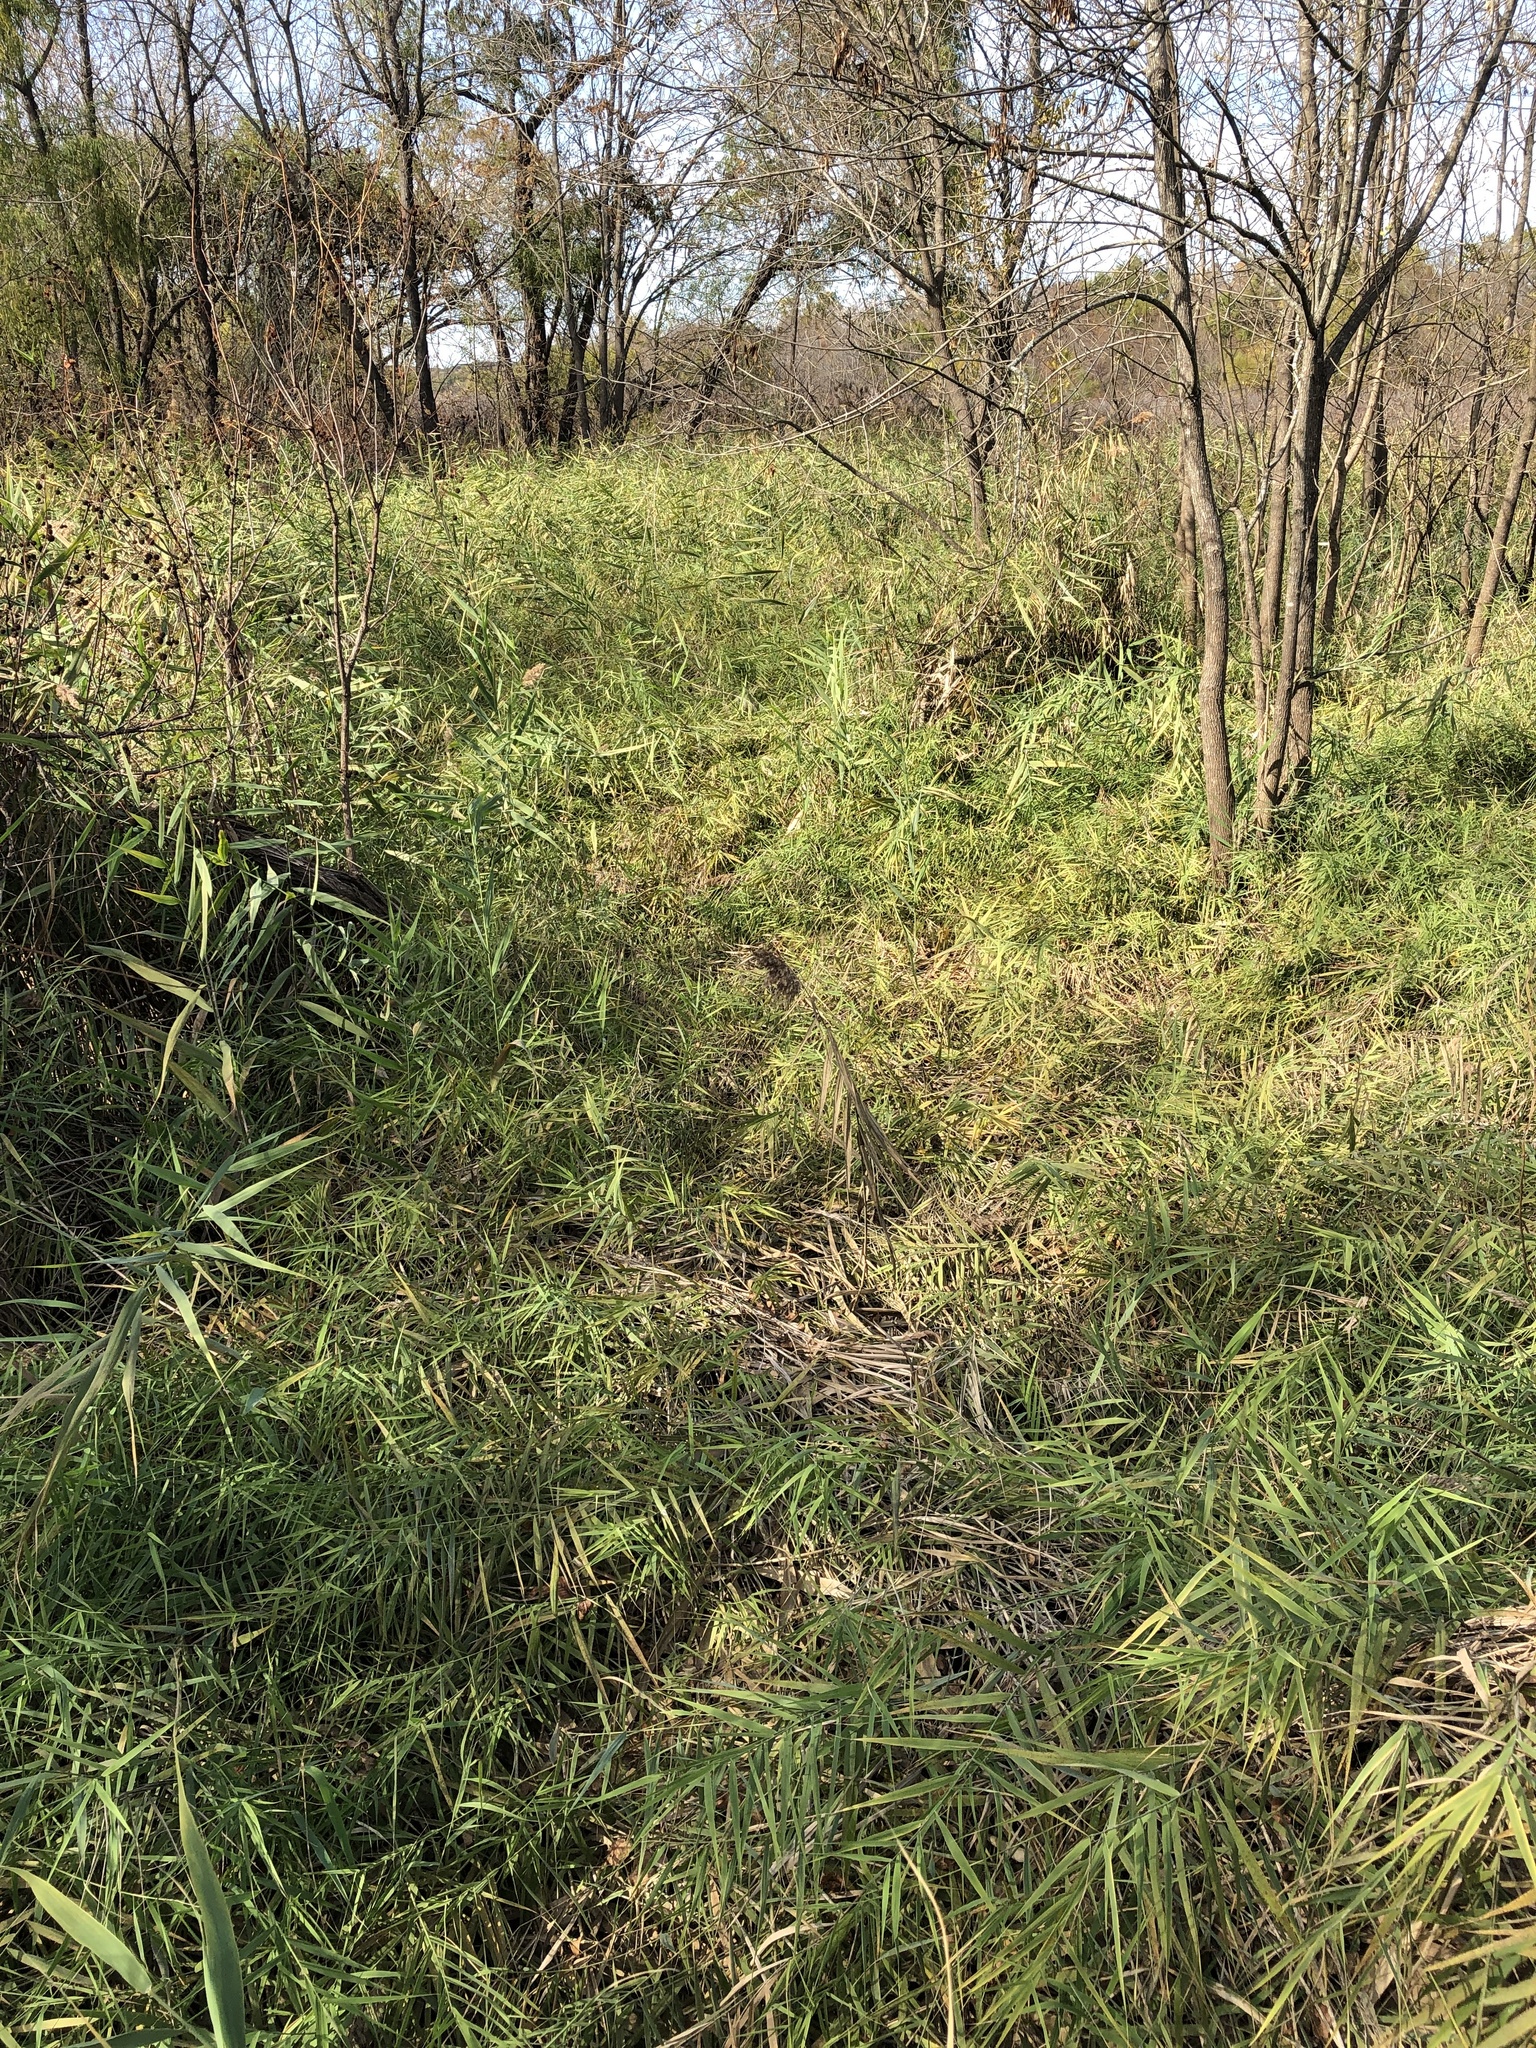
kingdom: Plantae
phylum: Tracheophyta
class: Liliopsida
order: Poales
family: Poaceae
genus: Phragmites
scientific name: Phragmites australis
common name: Common reed
